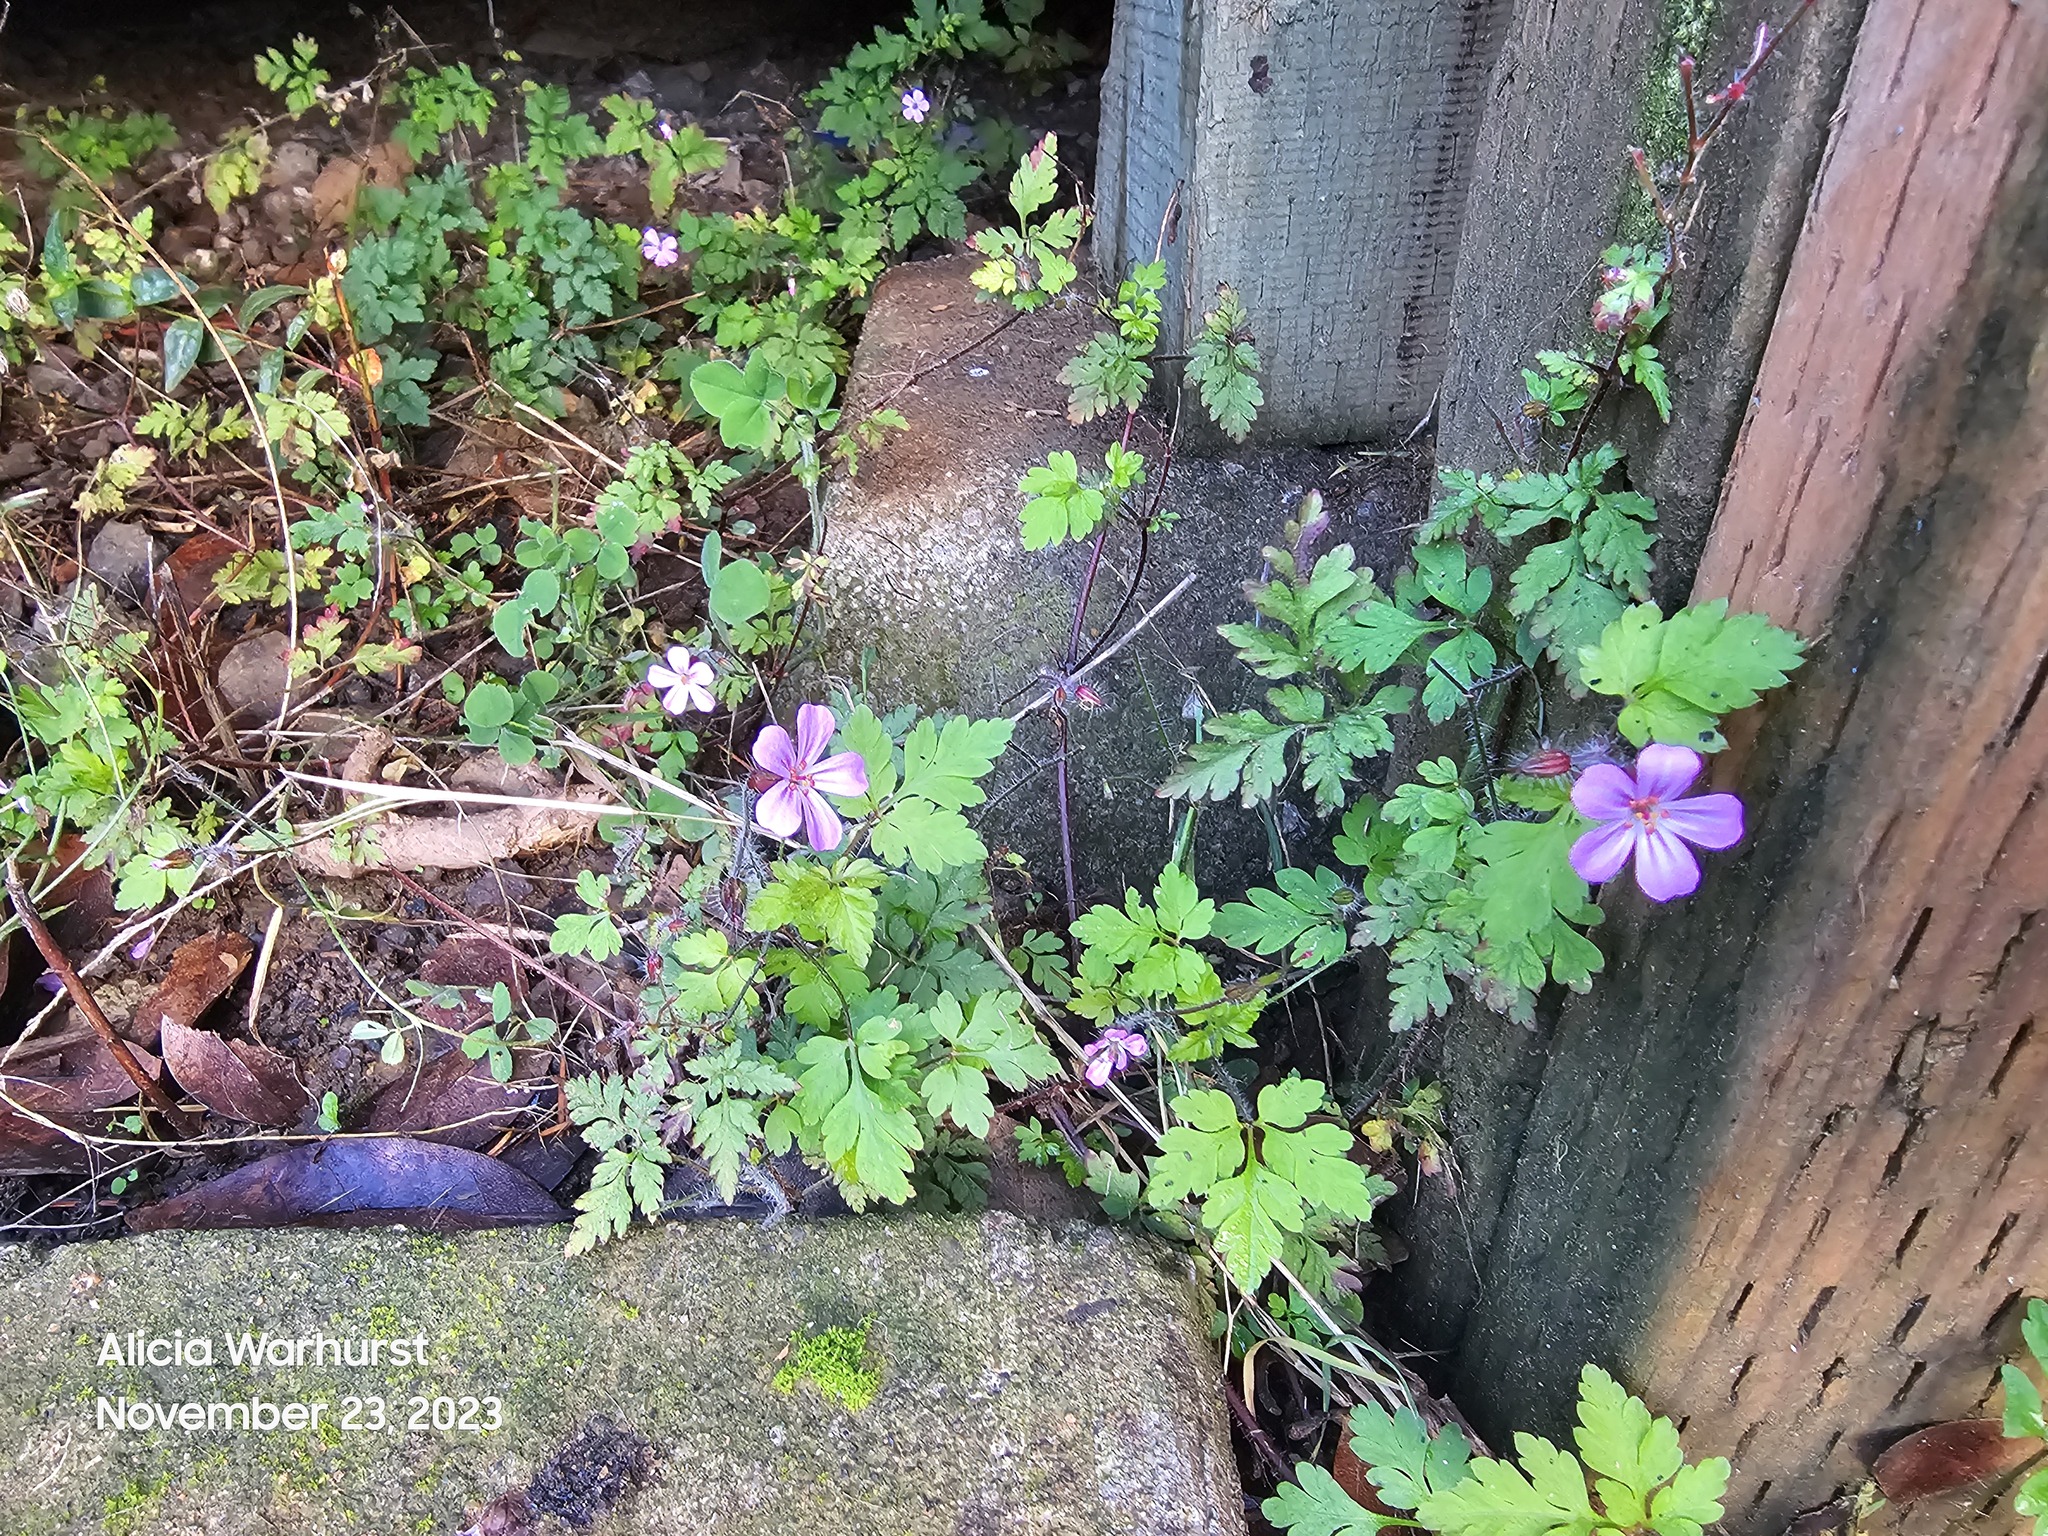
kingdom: Plantae
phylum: Tracheophyta
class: Magnoliopsida
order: Geraniales
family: Geraniaceae
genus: Geranium
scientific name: Geranium robertianum
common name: Herb-robert
